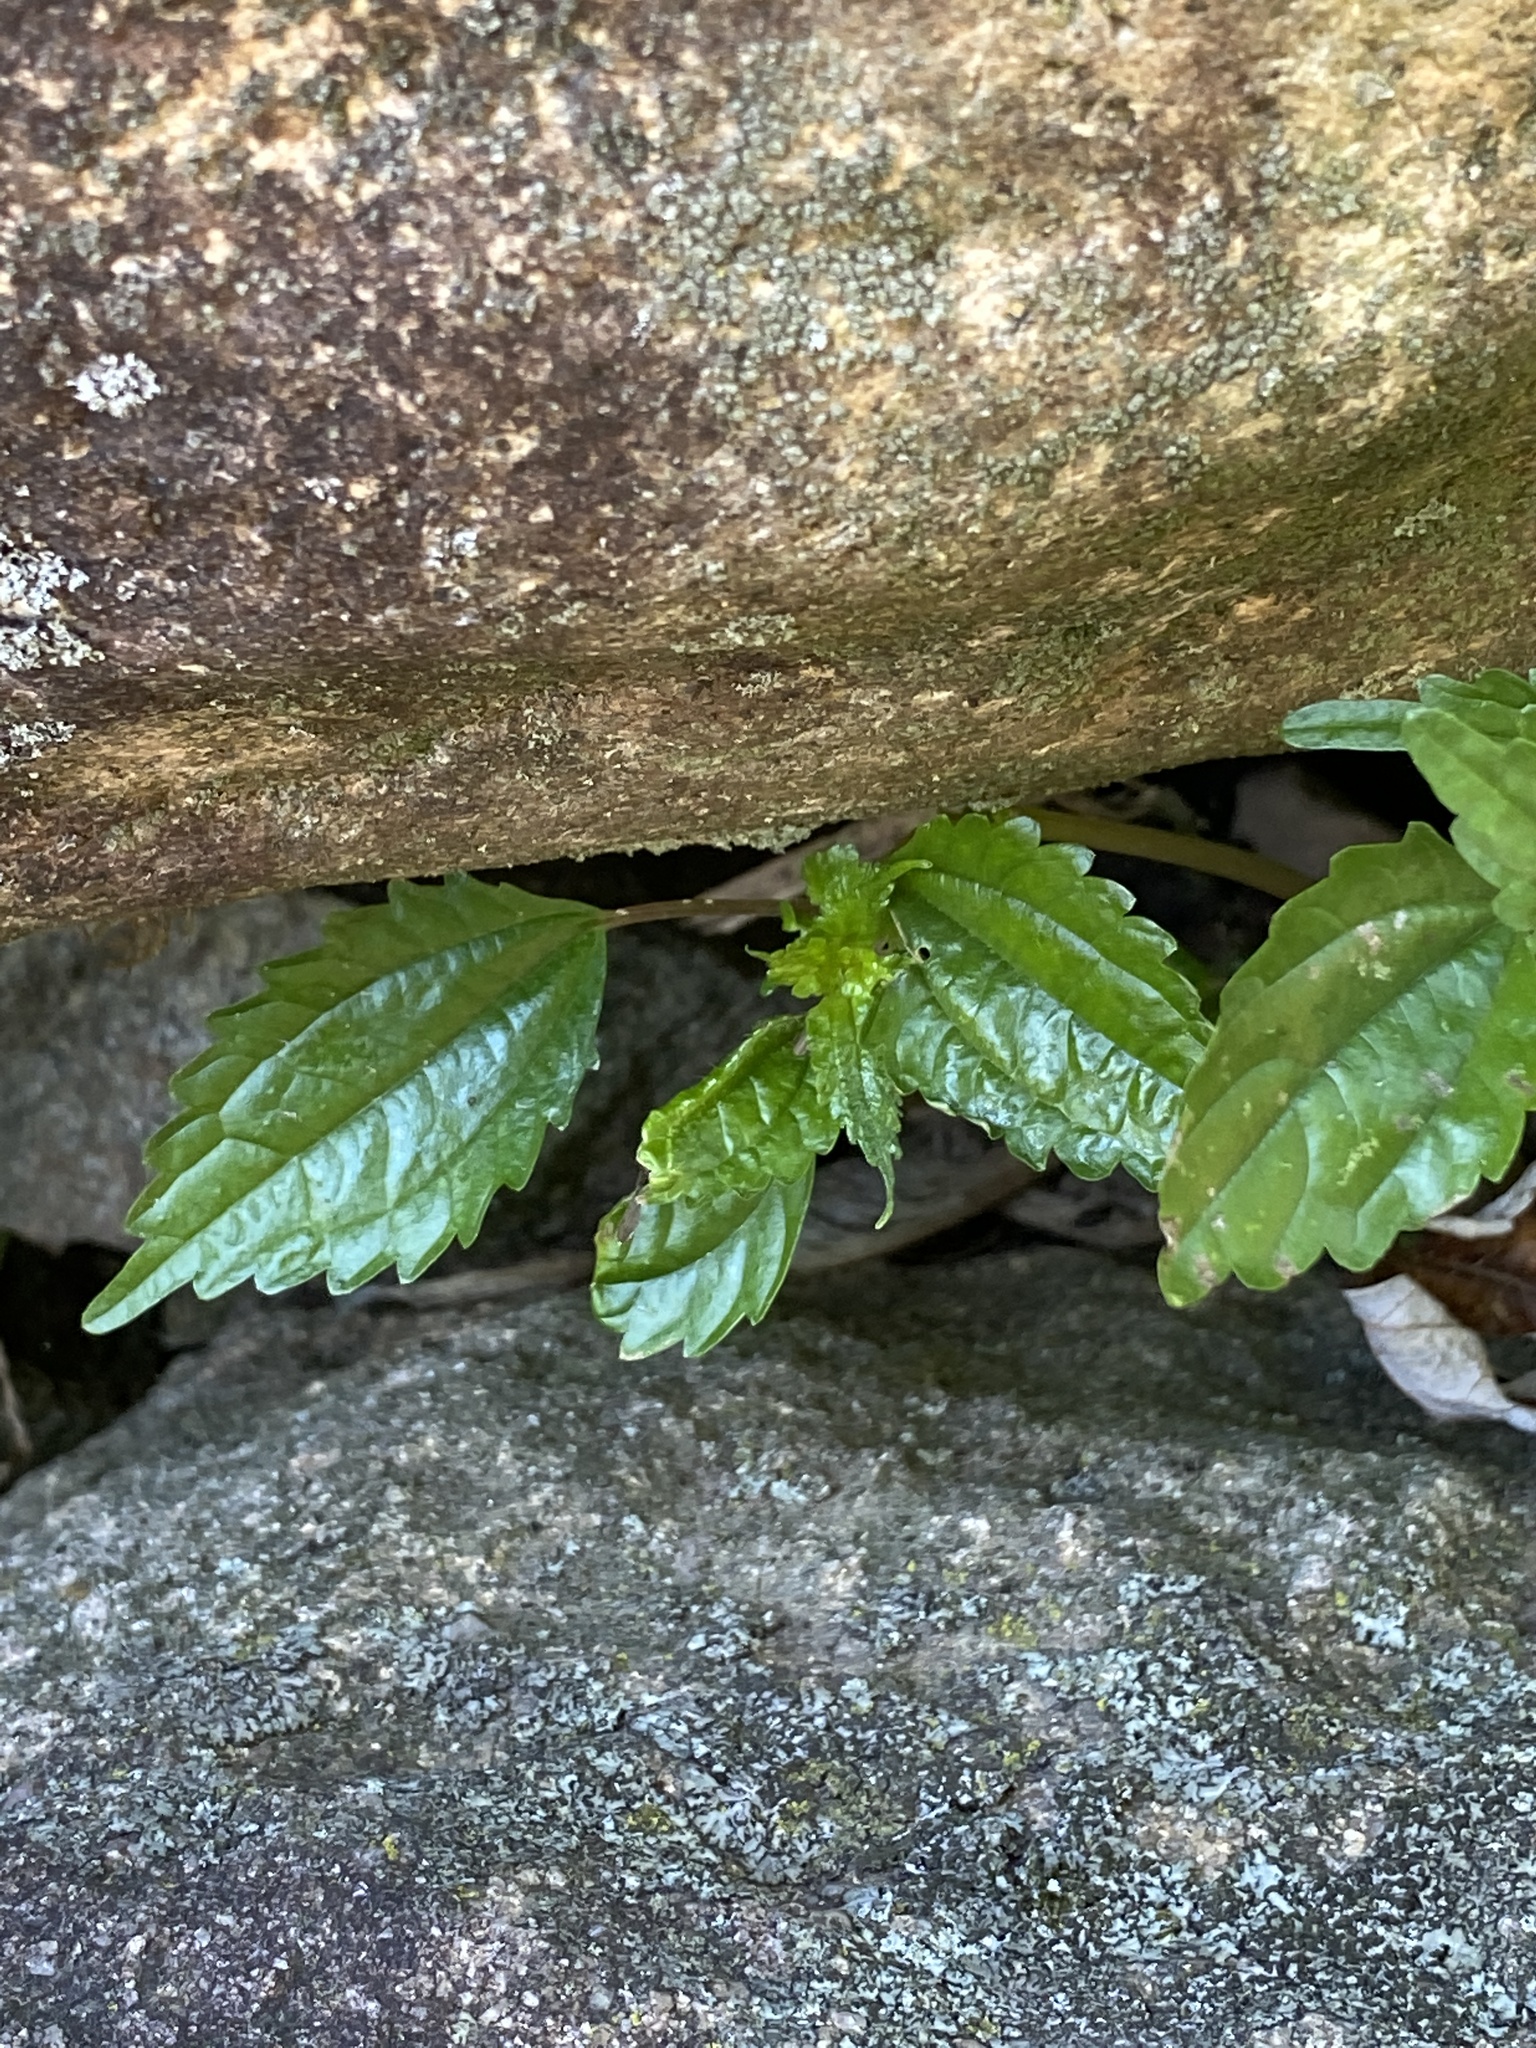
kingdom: Plantae
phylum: Tracheophyta
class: Magnoliopsida
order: Rosales
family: Urticaceae
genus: Pilea
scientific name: Pilea pumila
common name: Clearweed
